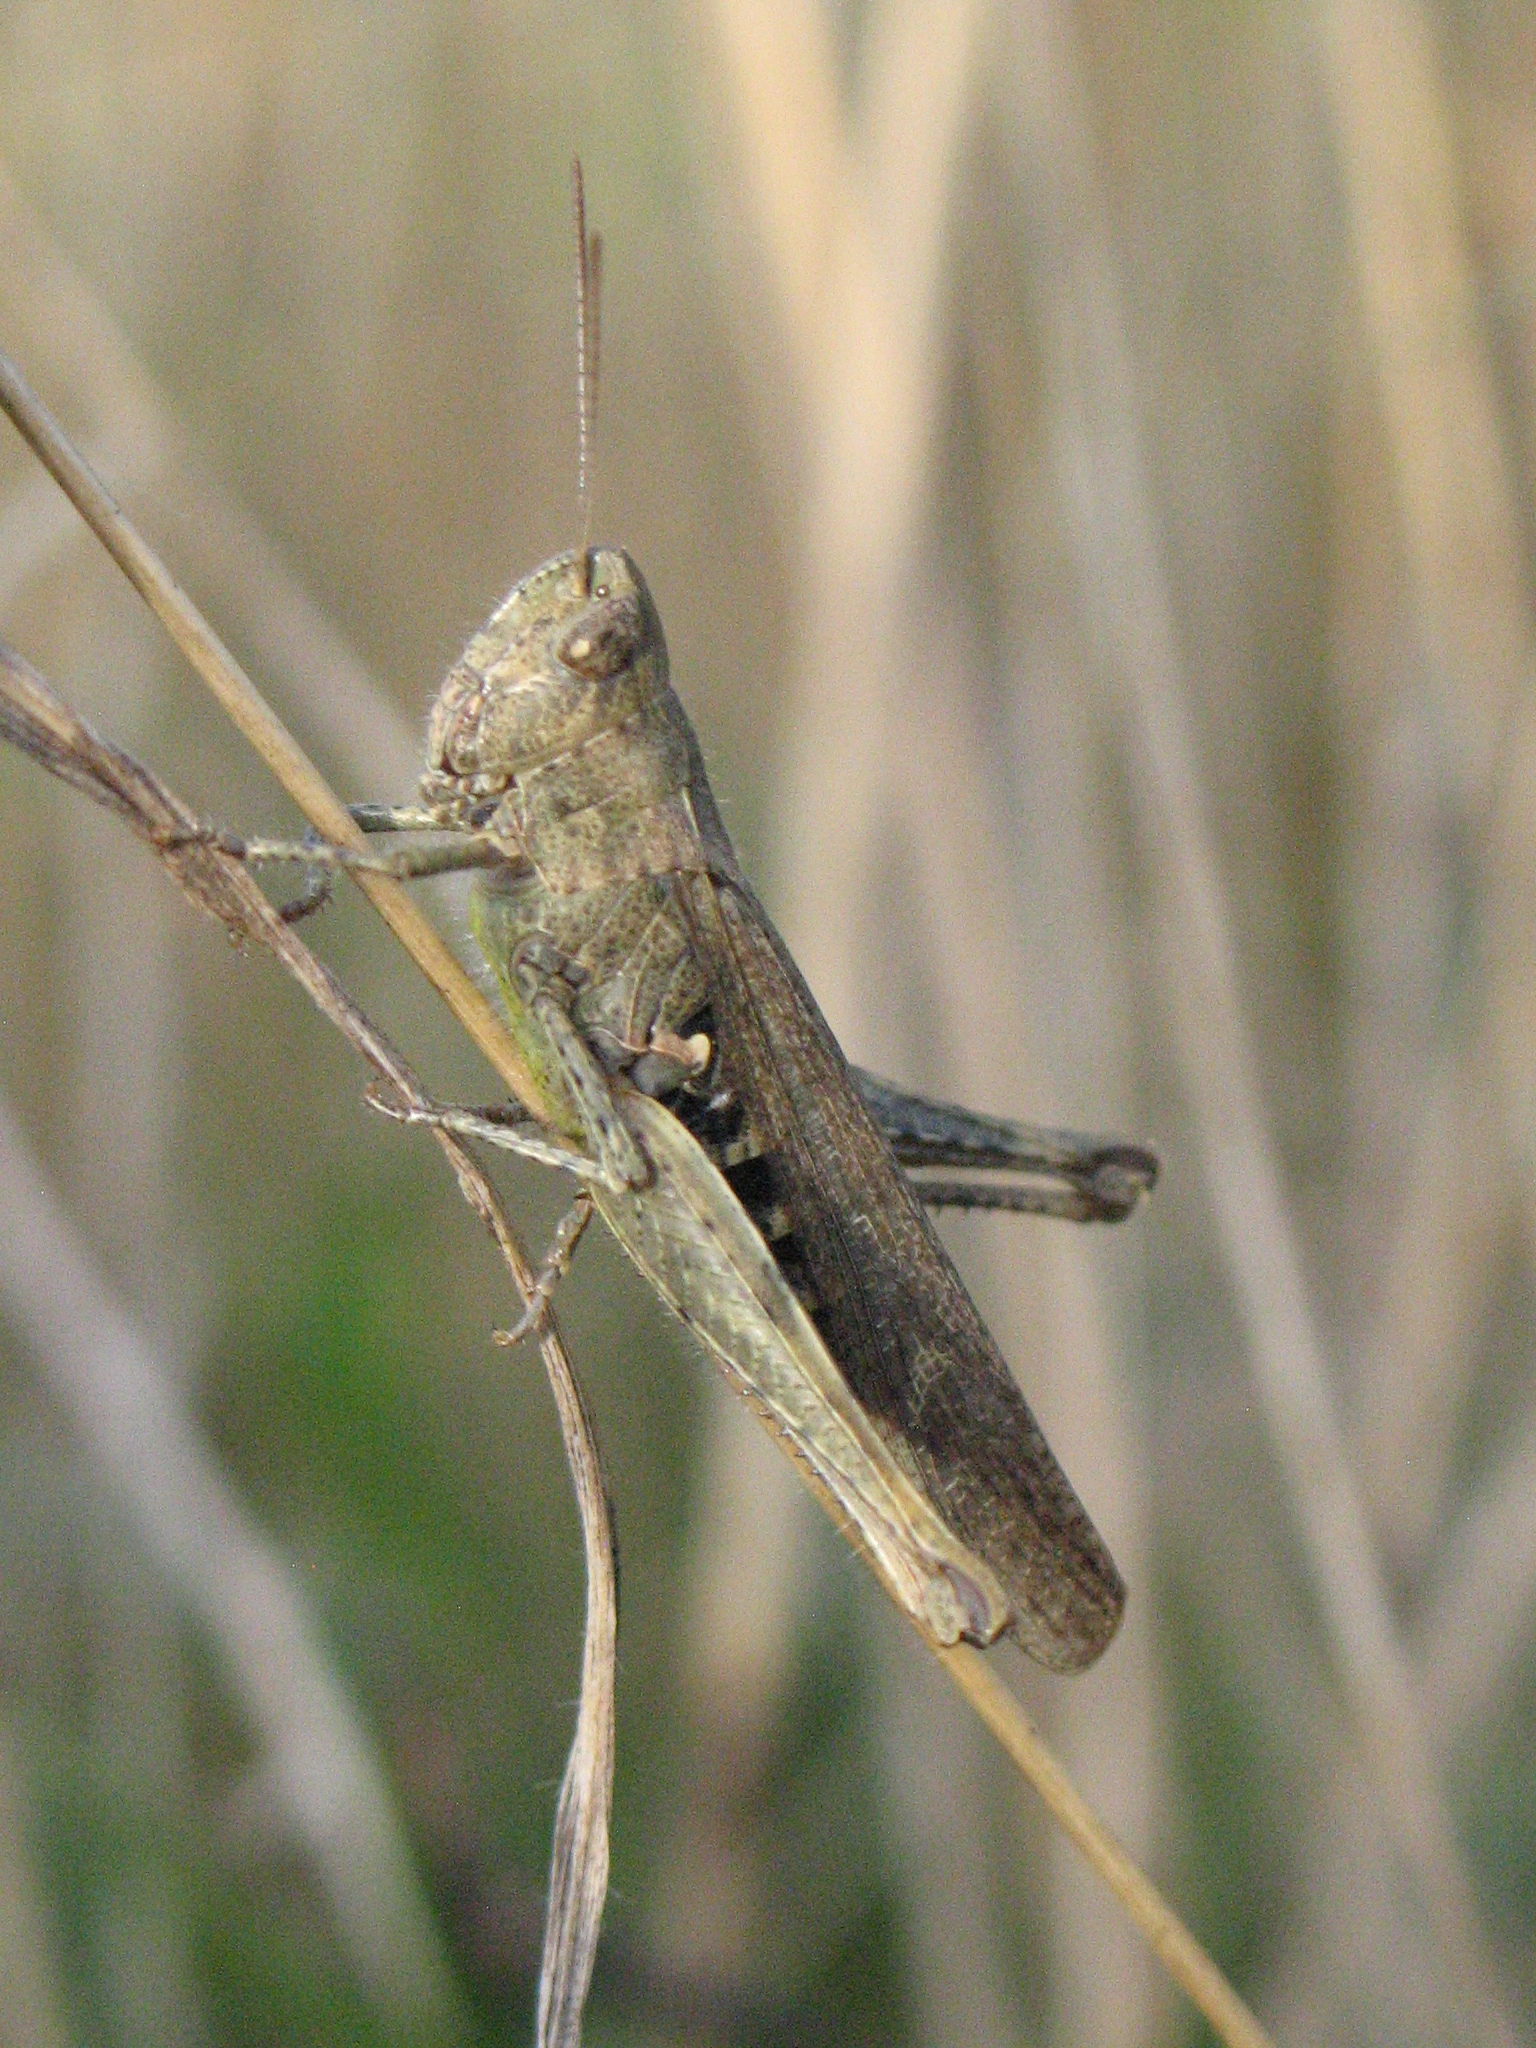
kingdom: Animalia
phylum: Arthropoda
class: Insecta
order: Orthoptera
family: Acrididae
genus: Chorthippus
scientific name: Chorthippus brunneus
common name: Field grasshopper
